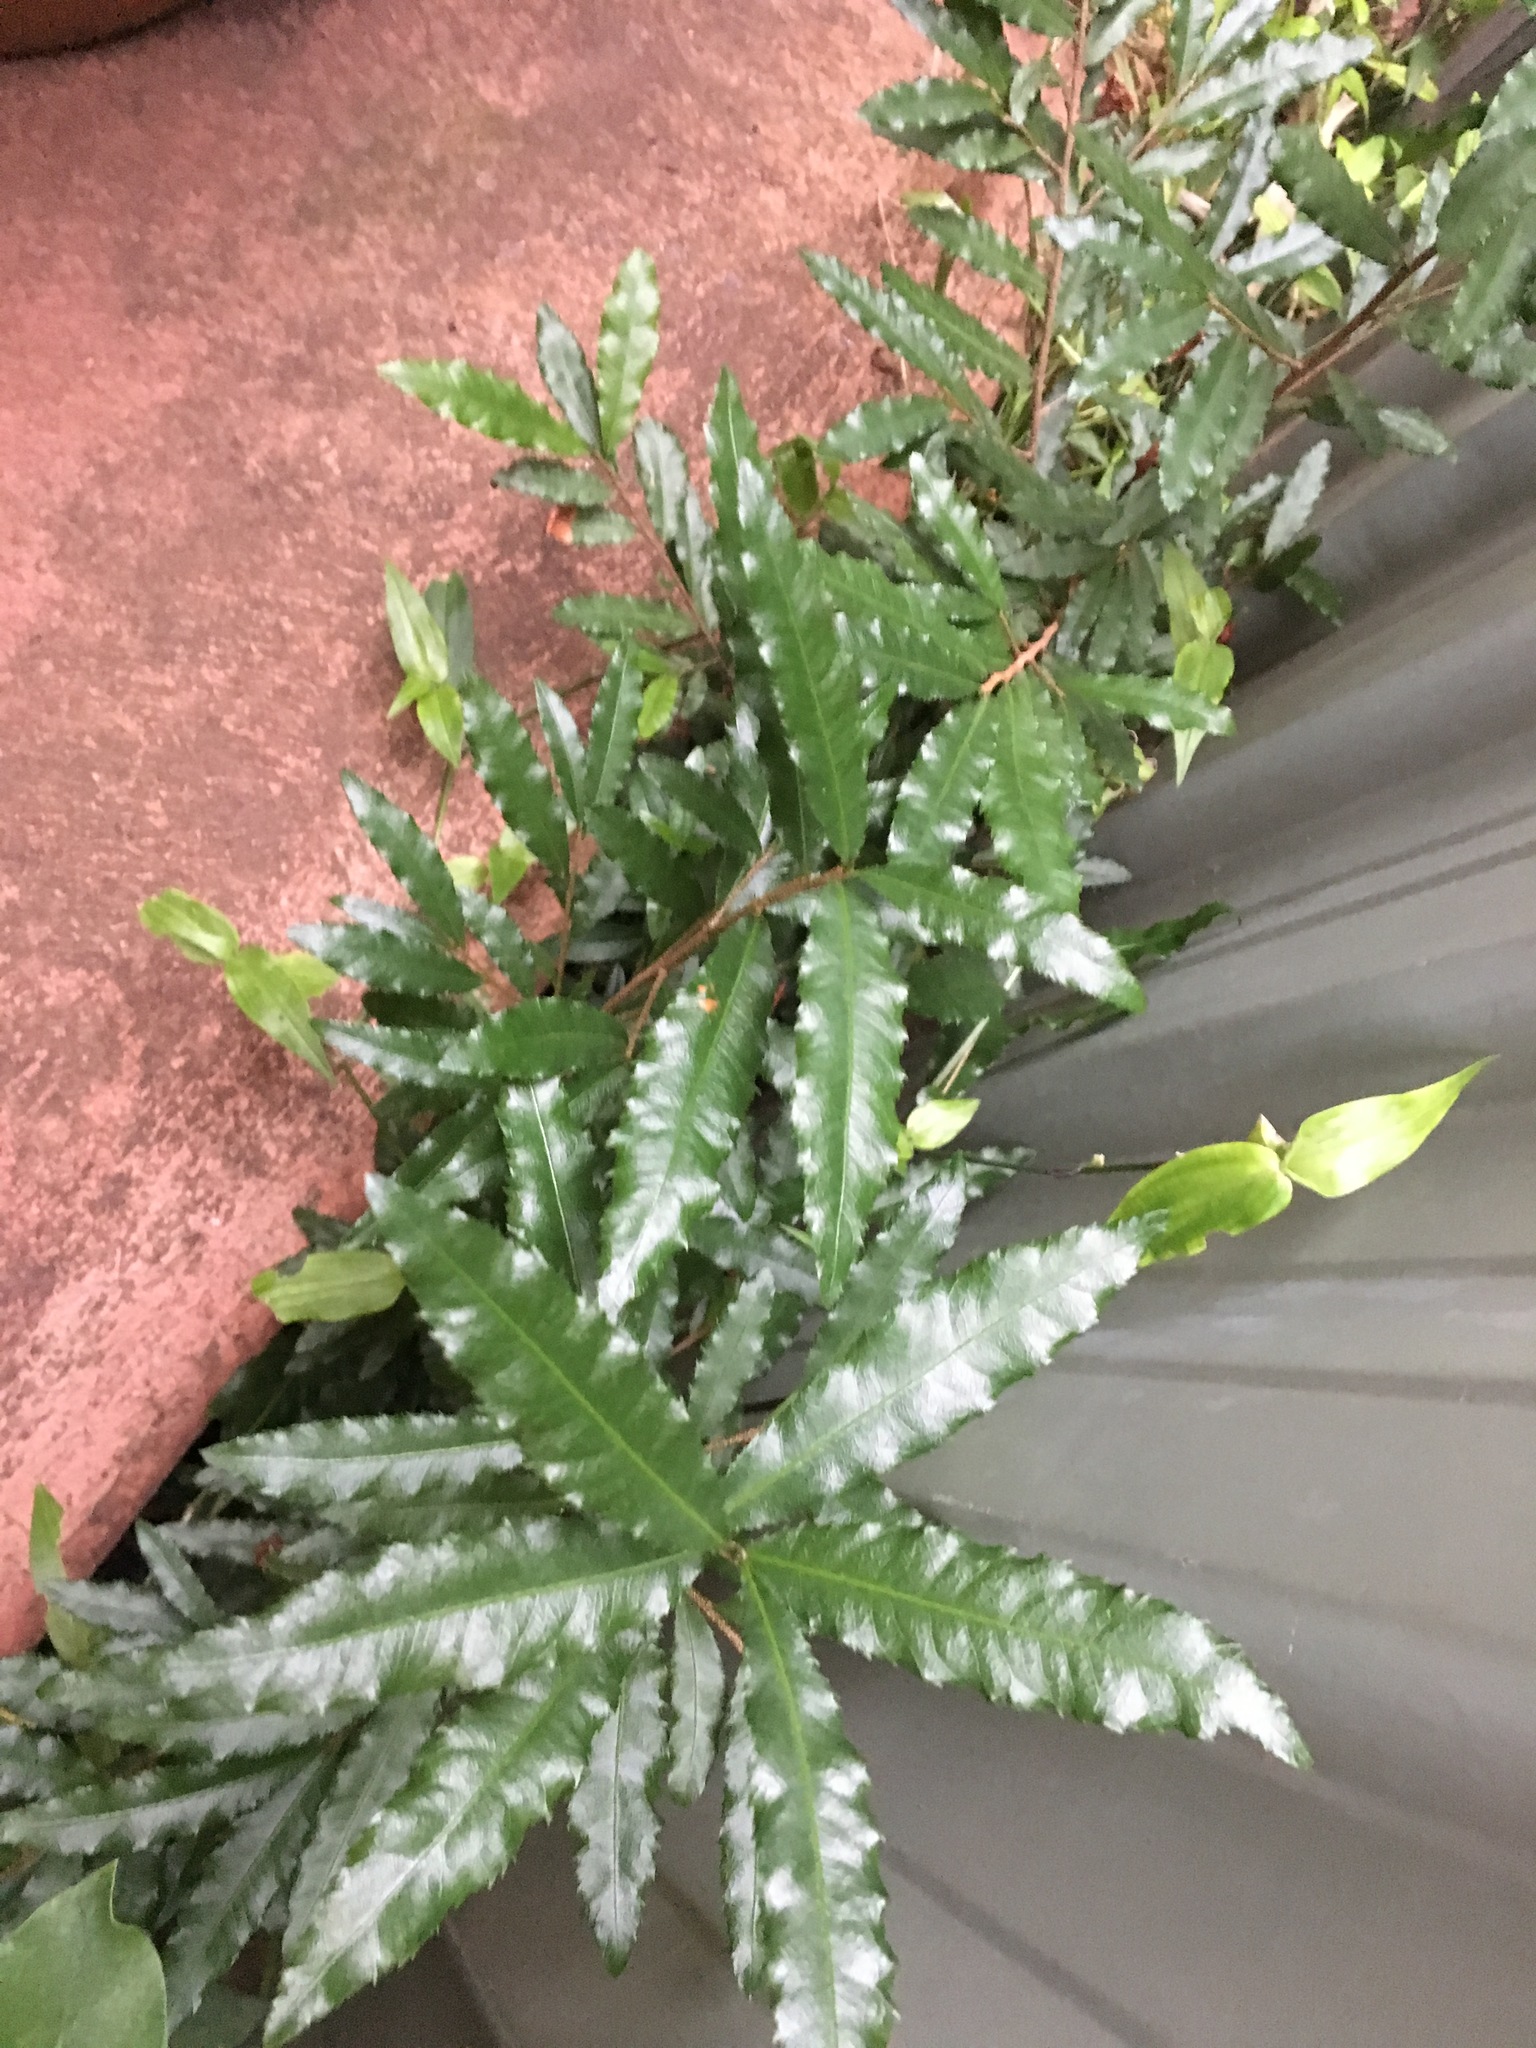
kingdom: Plantae
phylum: Tracheophyta
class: Magnoliopsida
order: Malpighiales
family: Ochnaceae
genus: Ochna
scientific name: Ochna serrulata
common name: Mickey mouse plant
